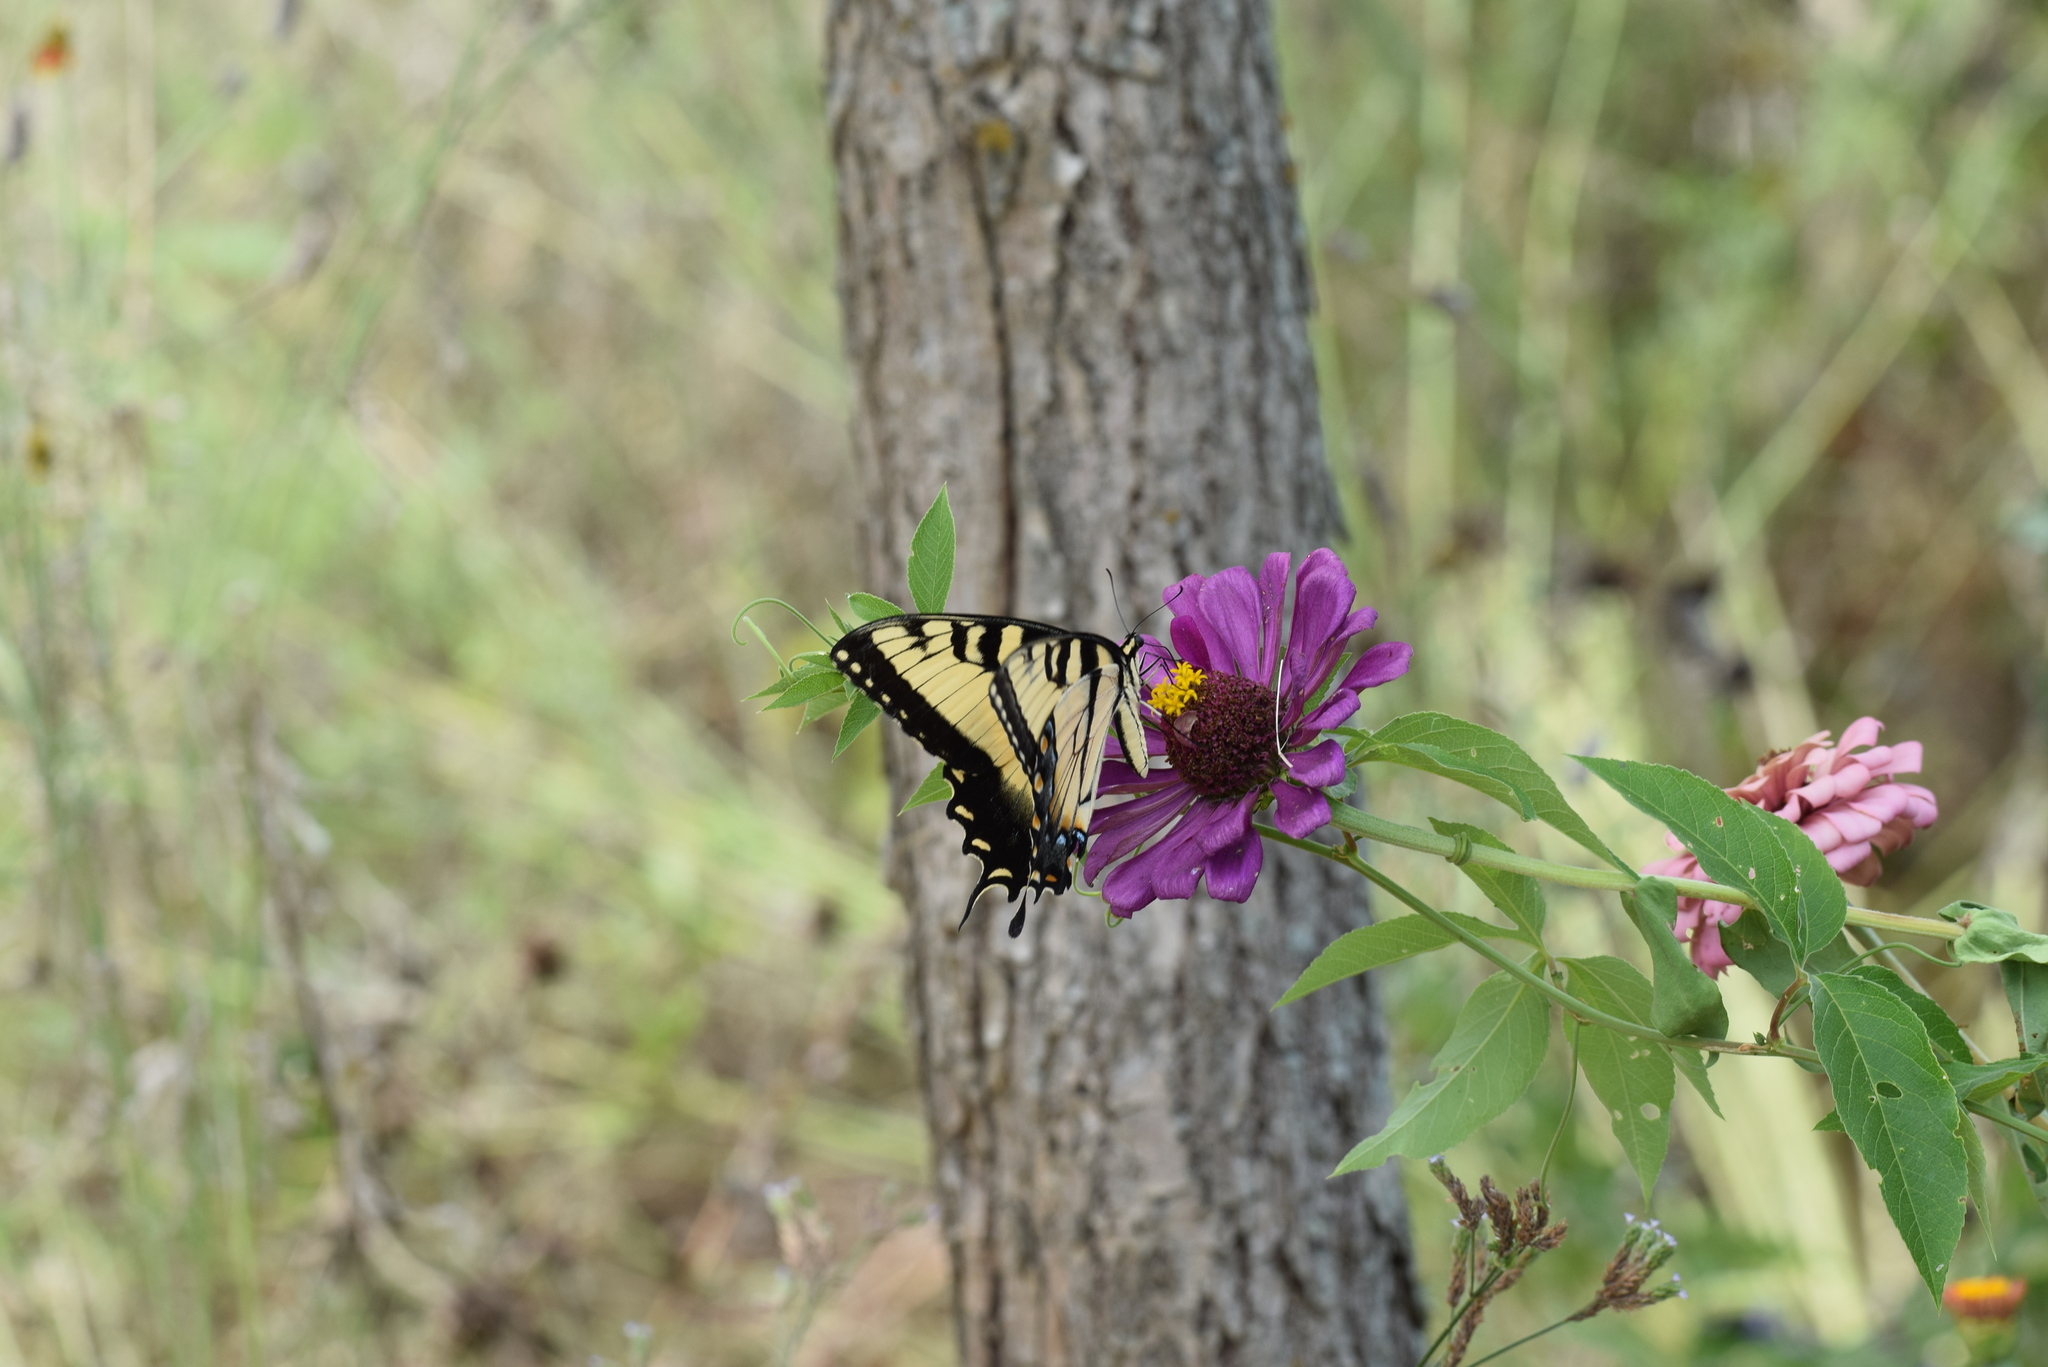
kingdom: Animalia
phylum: Arthropoda
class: Insecta
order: Lepidoptera
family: Papilionidae
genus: Papilio
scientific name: Papilio glaucus
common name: Tiger swallowtail
